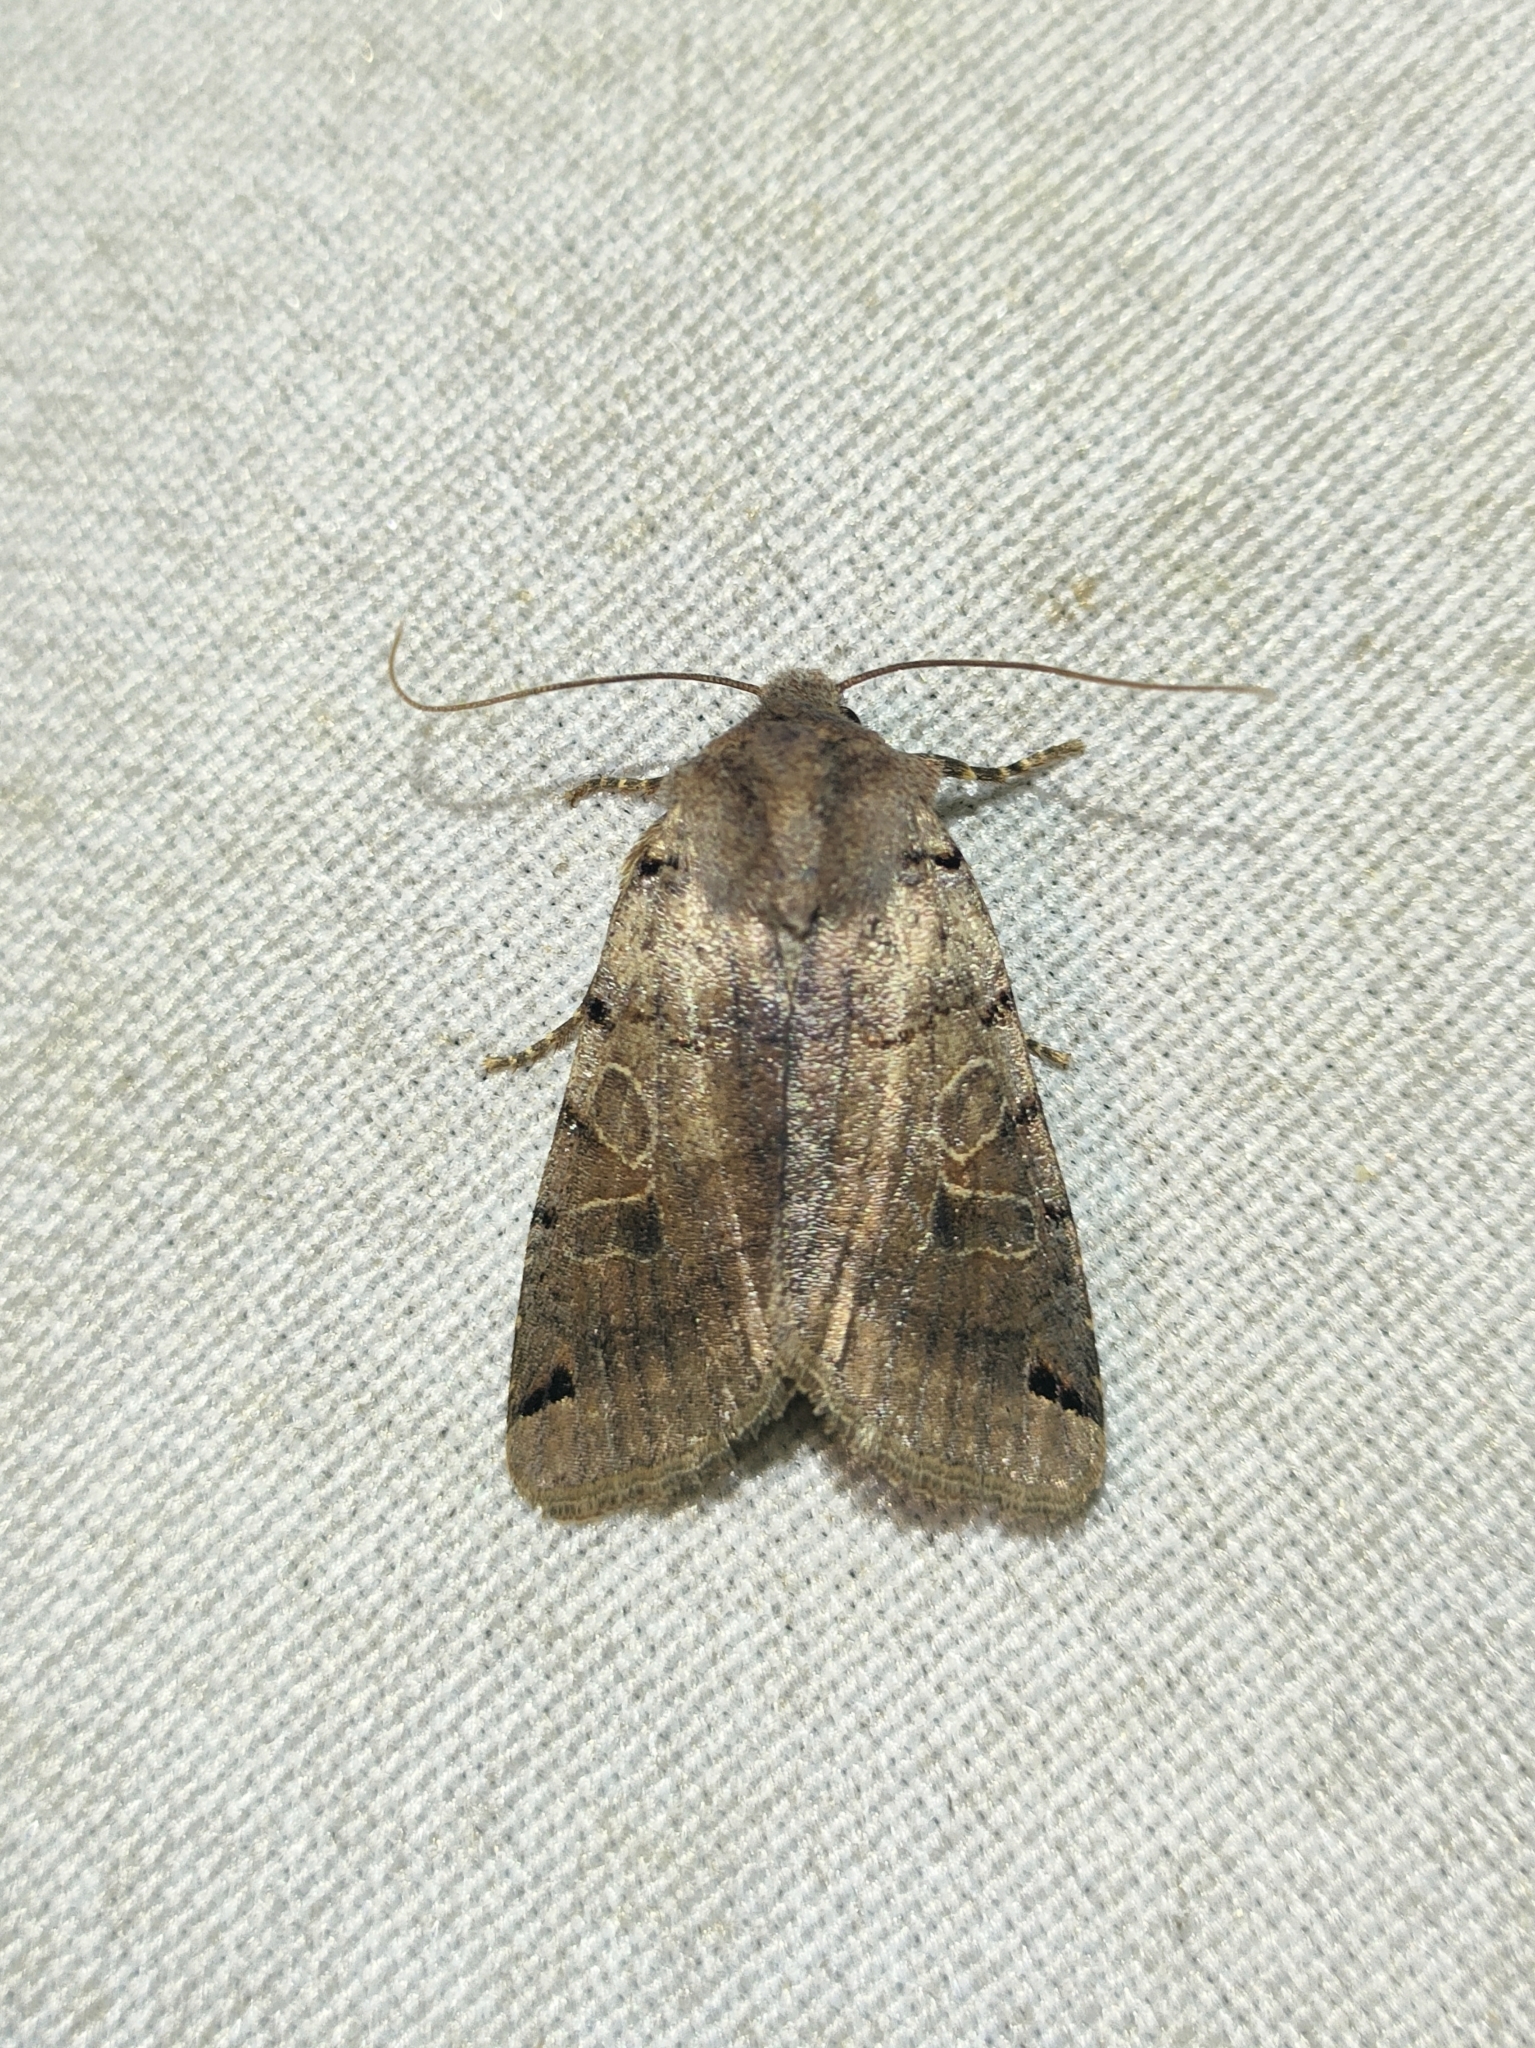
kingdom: Animalia
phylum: Arthropoda
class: Insecta
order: Lepidoptera
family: Noctuidae
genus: Agrochola
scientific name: Agrochola litura
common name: Brown-spot pinion
